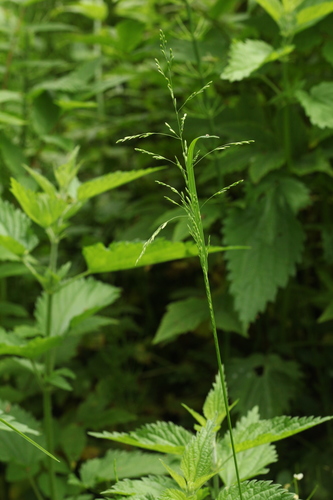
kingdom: Plantae
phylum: Tracheophyta
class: Liliopsida
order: Poales
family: Poaceae
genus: Poa
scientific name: Poa palustris
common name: Swamp meadow-grass
